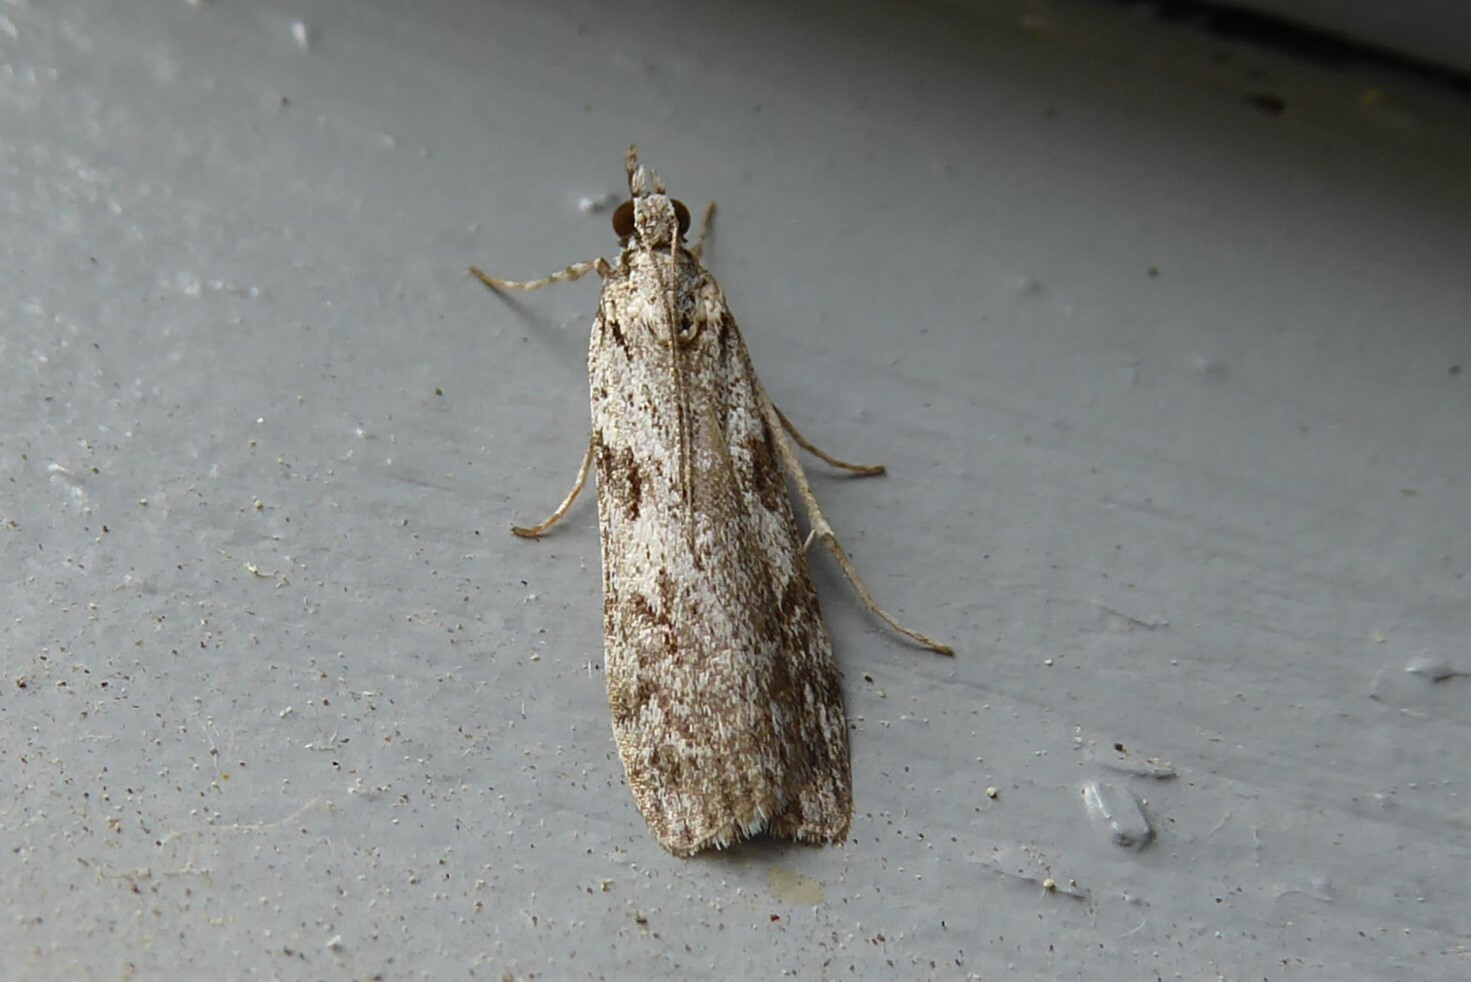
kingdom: Animalia
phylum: Arthropoda
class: Insecta
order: Lepidoptera
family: Crambidae
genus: Scoparia
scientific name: Scoparia halopis
